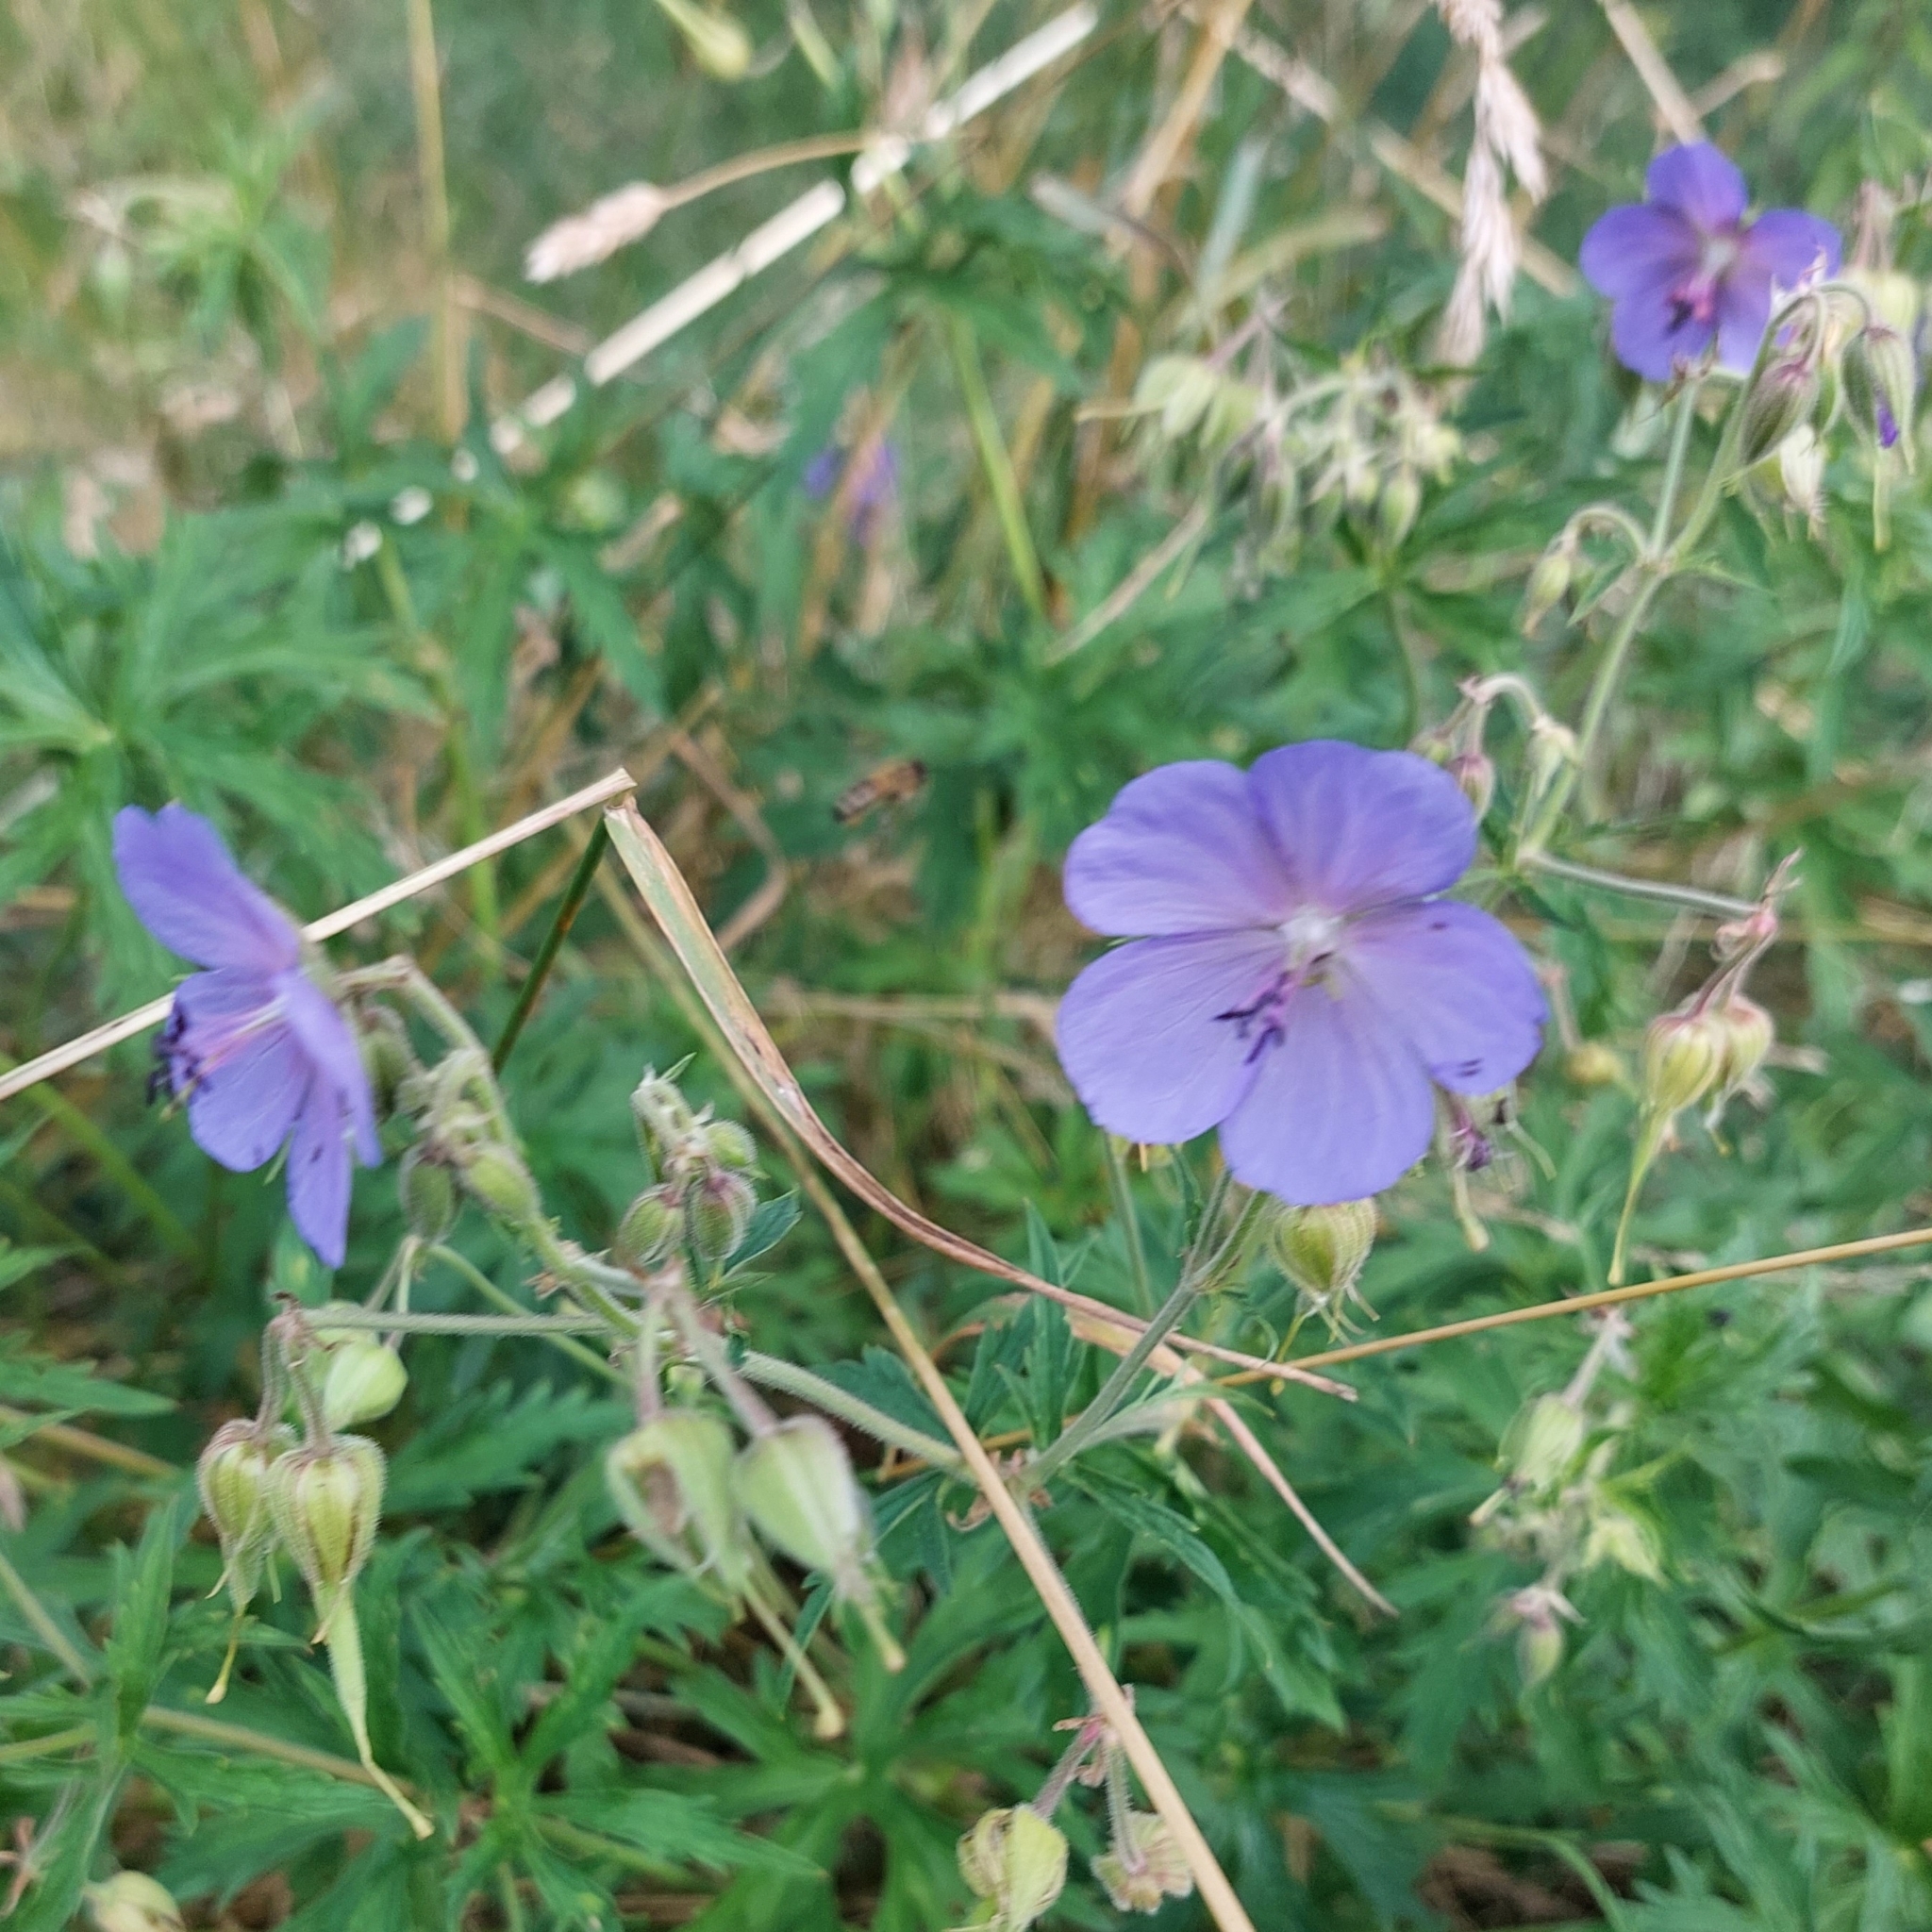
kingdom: Plantae
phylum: Tracheophyta
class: Magnoliopsida
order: Geraniales
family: Geraniaceae
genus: Geranium
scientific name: Geranium pratense
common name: Meadow crane's-bill
